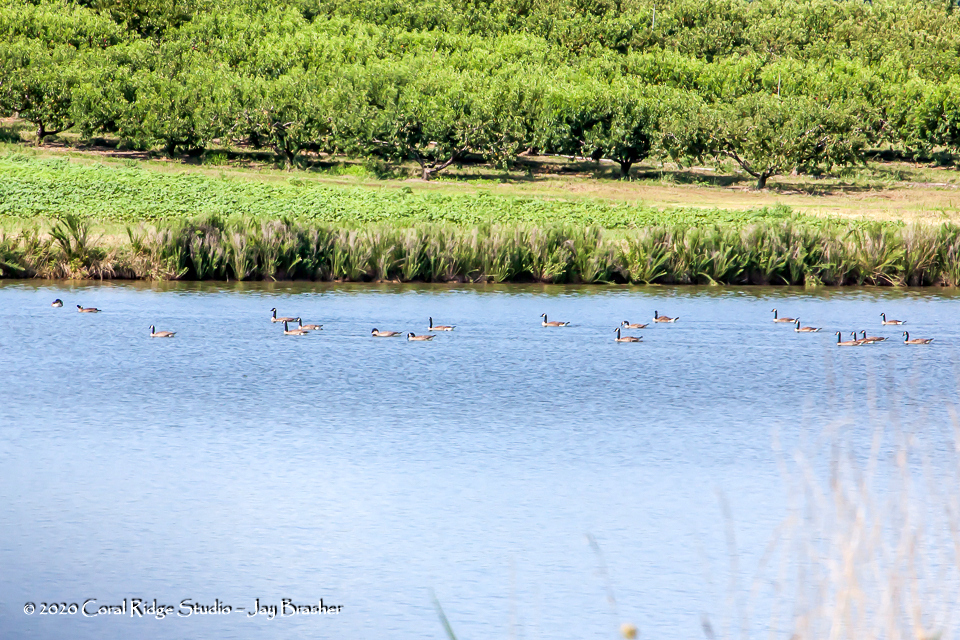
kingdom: Animalia
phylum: Chordata
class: Aves
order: Anseriformes
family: Anatidae
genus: Branta
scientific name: Branta canadensis
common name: Canada goose
